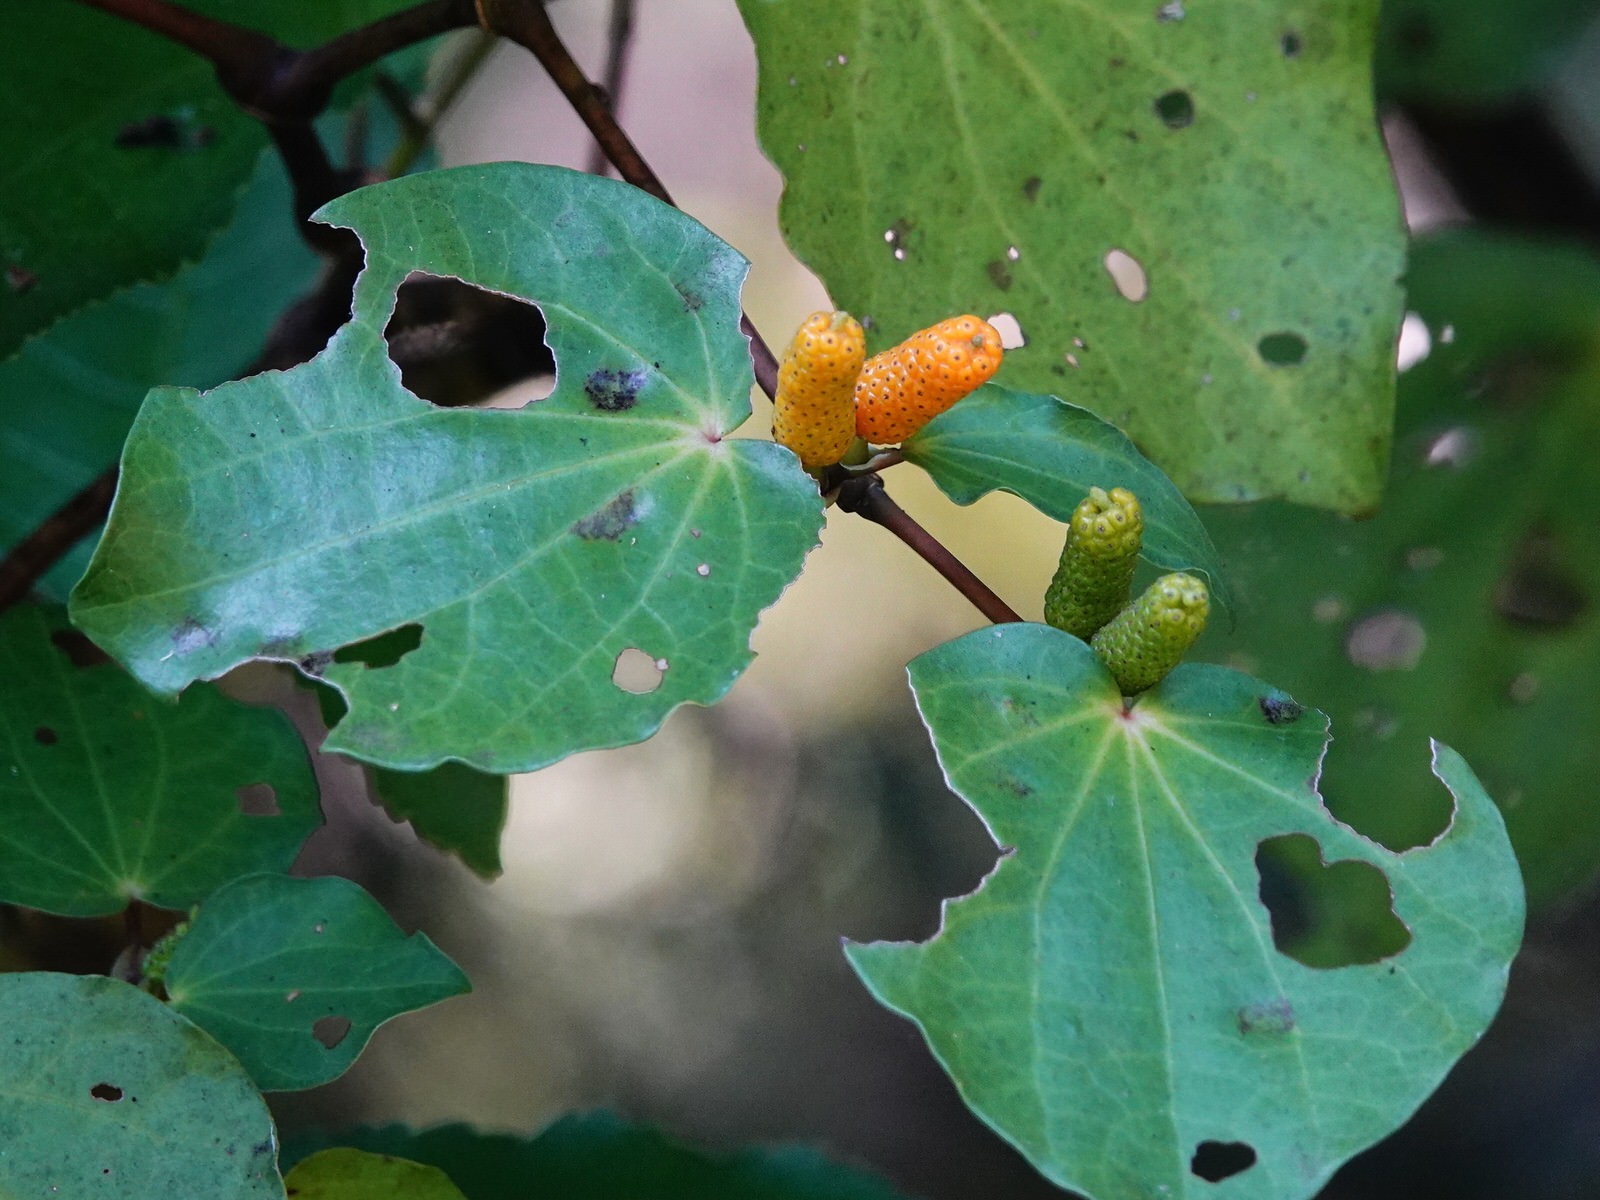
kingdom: Plantae
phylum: Tracheophyta
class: Magnoliopsida
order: Piperales
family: Piperaceae
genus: Macropiper
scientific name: Macropiper excelsum
